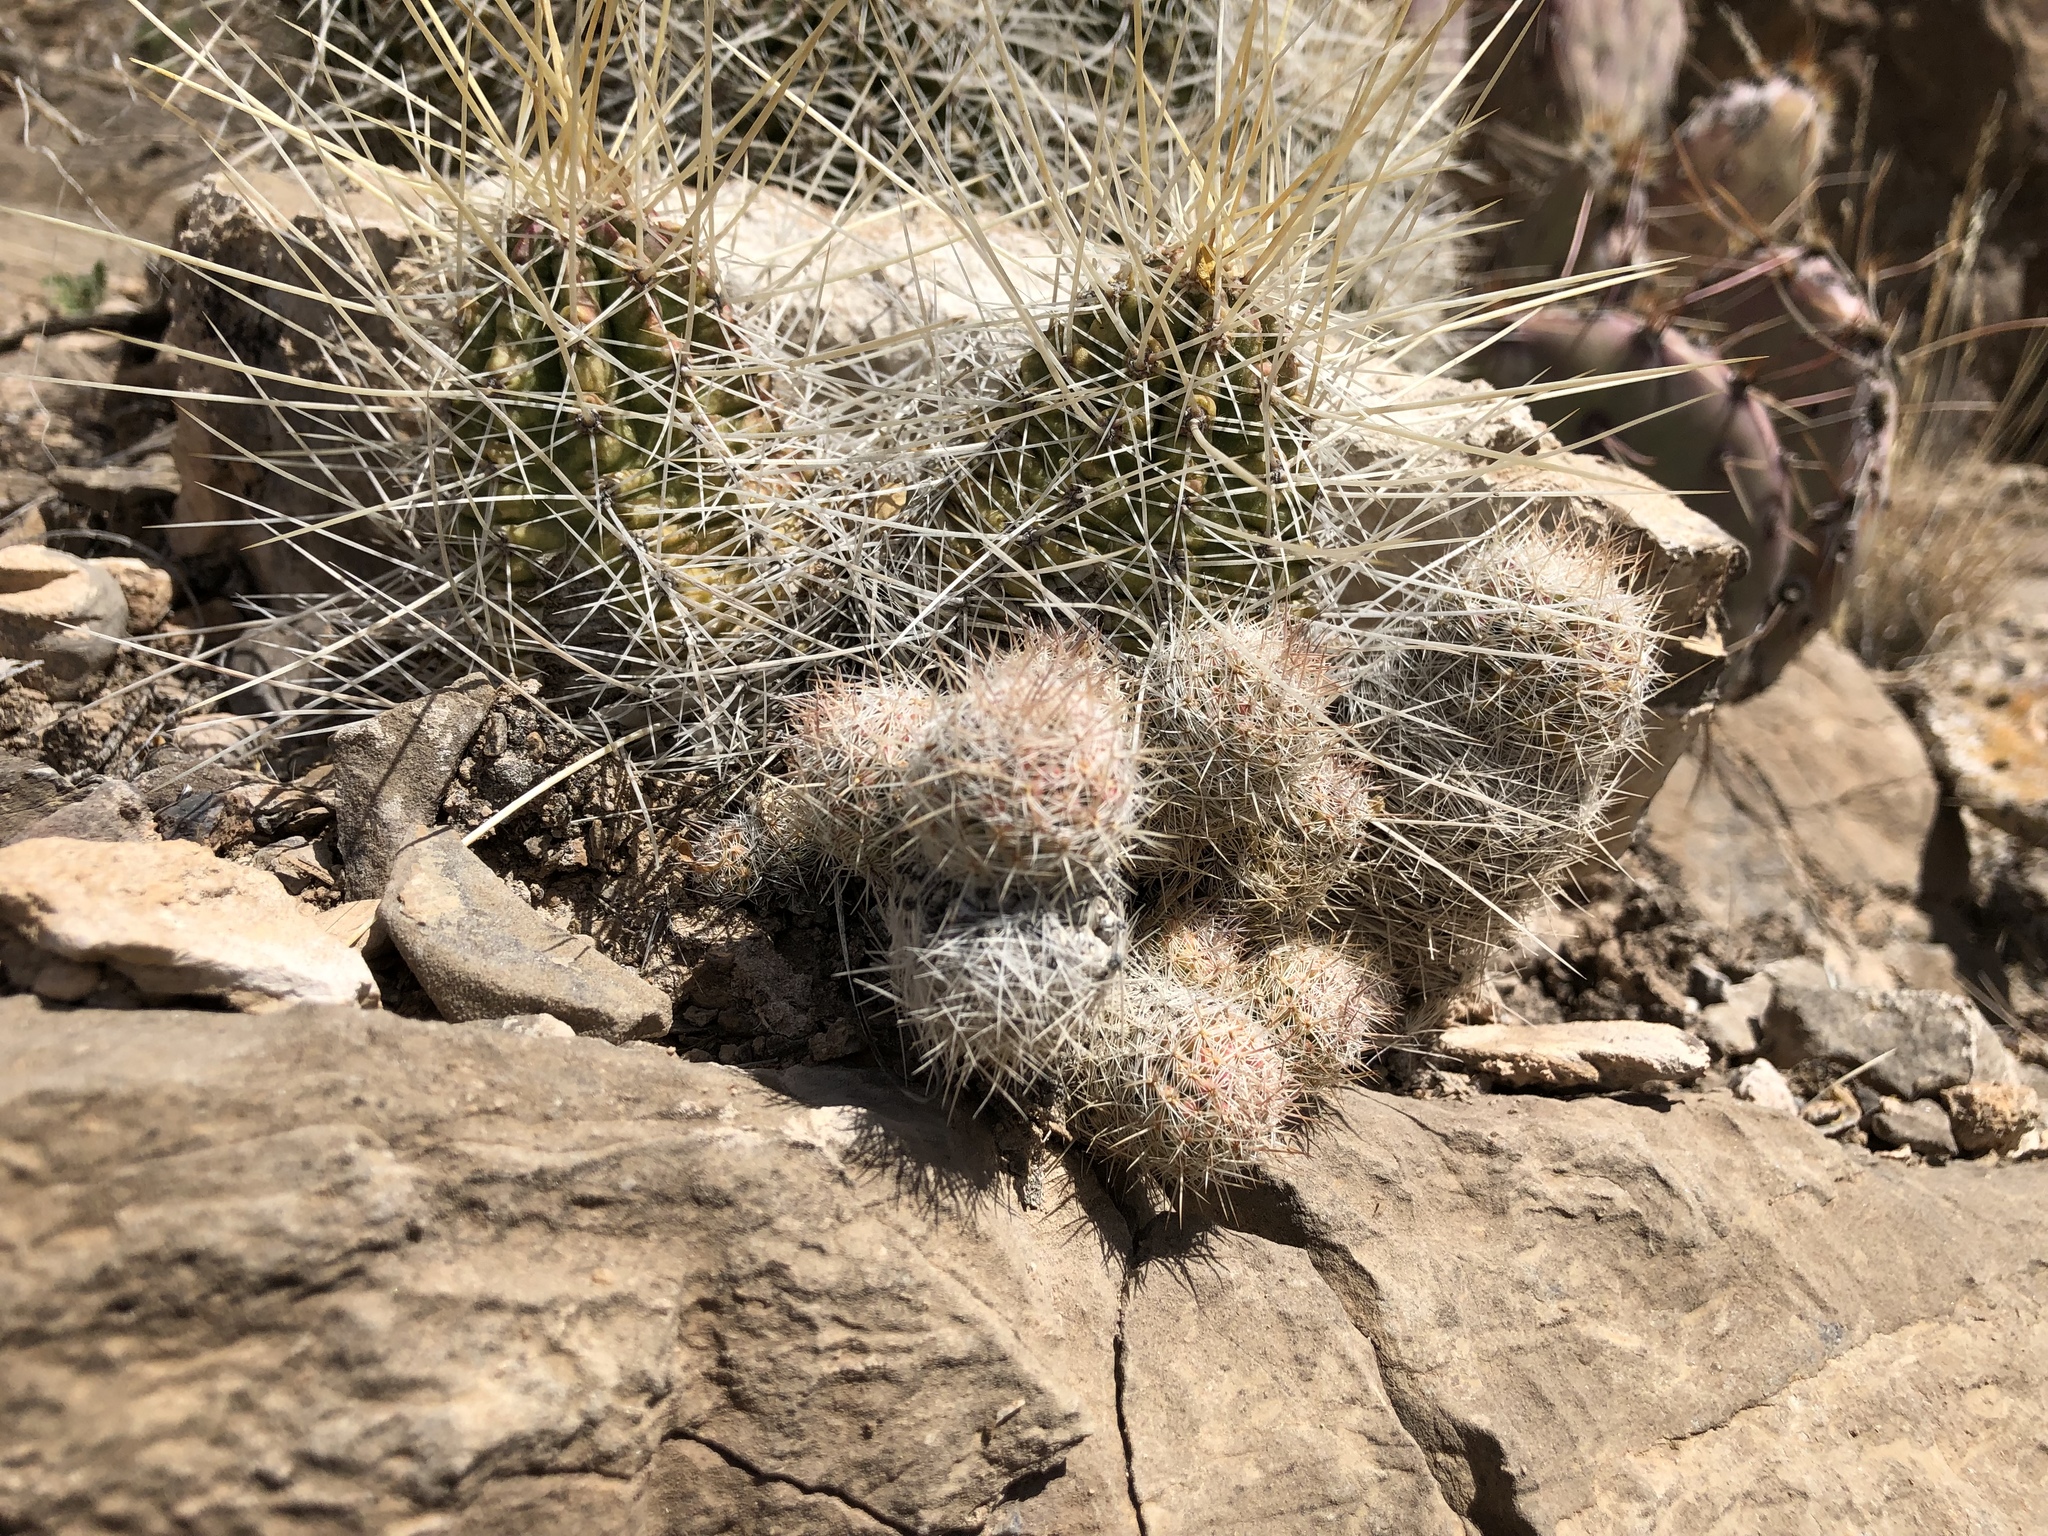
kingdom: Plantae
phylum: Tracheophyta
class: Magnoliopsida
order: Caryophyllales
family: Cactaceae
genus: Echinocereus
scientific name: Echinocereus stramineus
